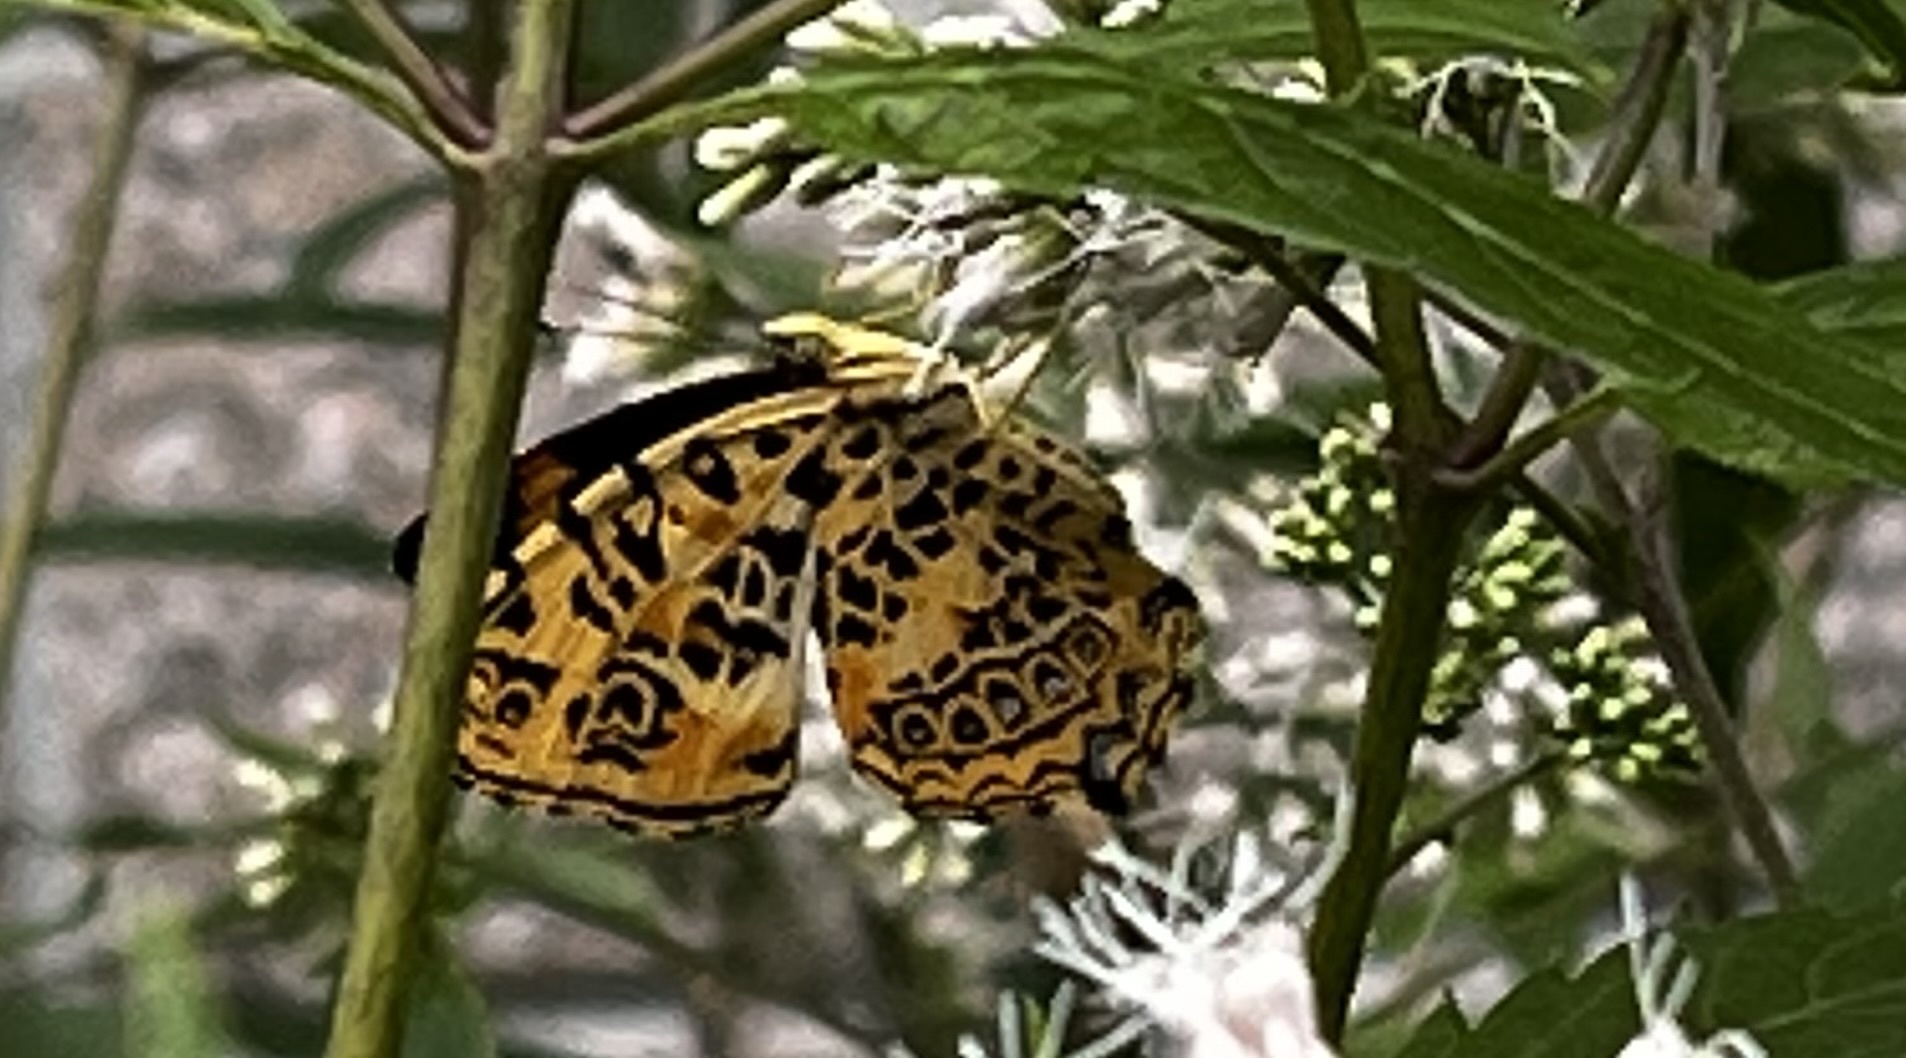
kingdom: Animalia
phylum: Arthropoda
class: Insecta
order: Lepidoptera
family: Nymphalidae
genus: Symbrenthia
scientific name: Symbrenthia brabira
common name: Yellow jester
